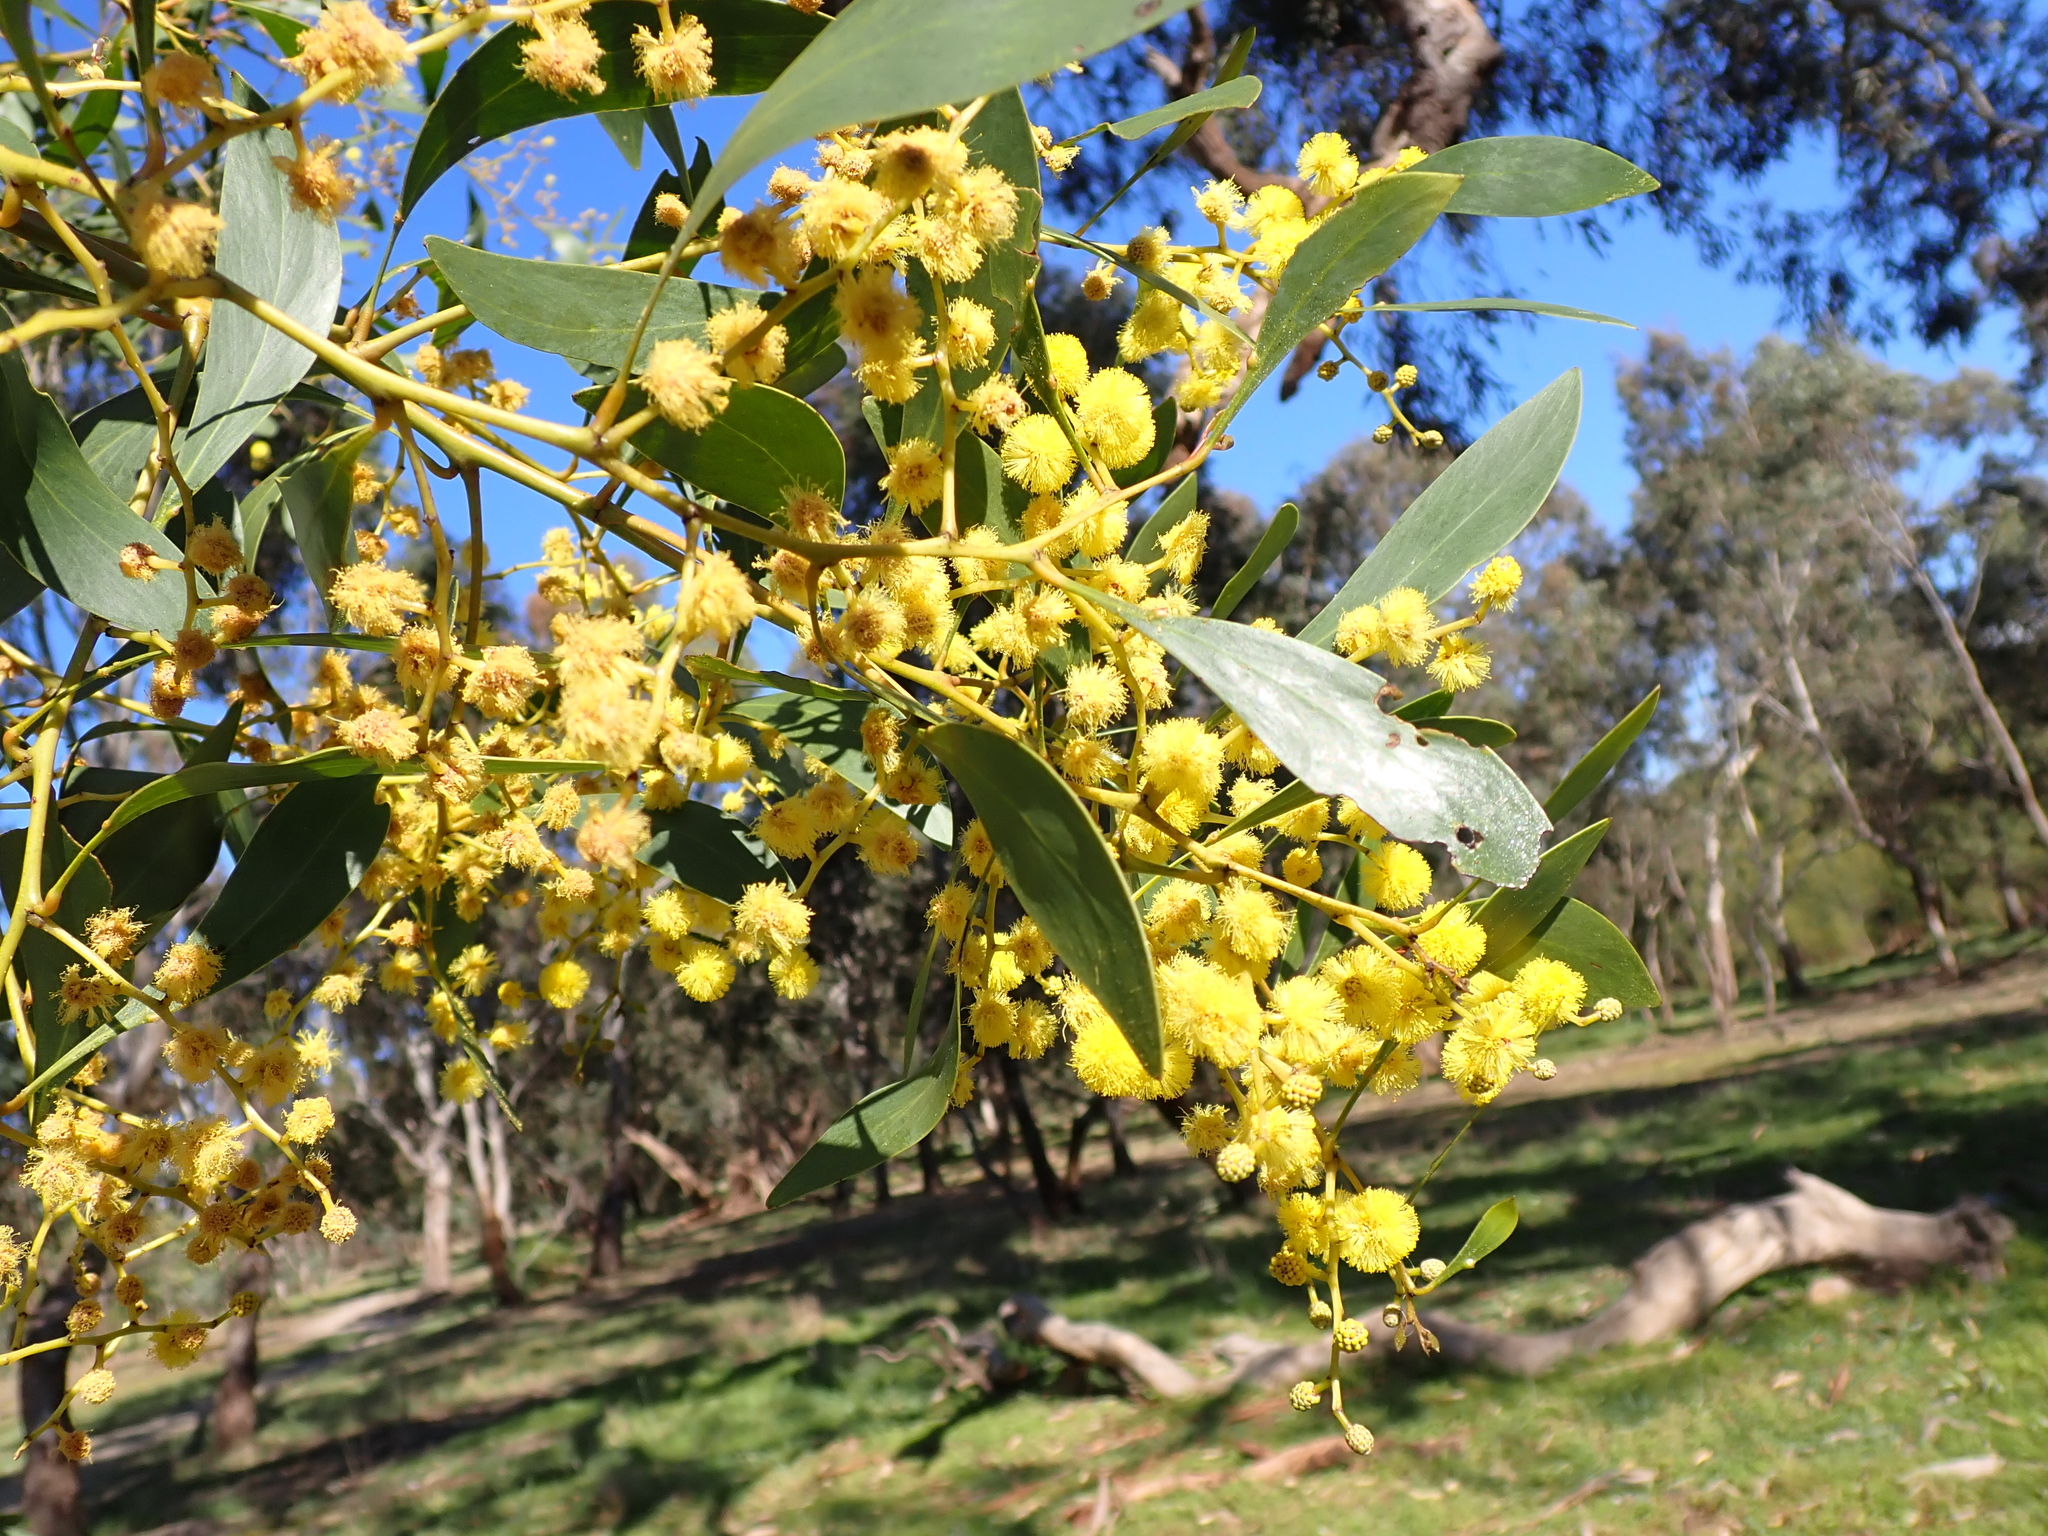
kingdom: Plantae
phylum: Tracheophyta
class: Magnoliopsida
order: Fabales
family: Fabaceae
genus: Acacia
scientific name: Acacia pycnantha
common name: Golden wattle
